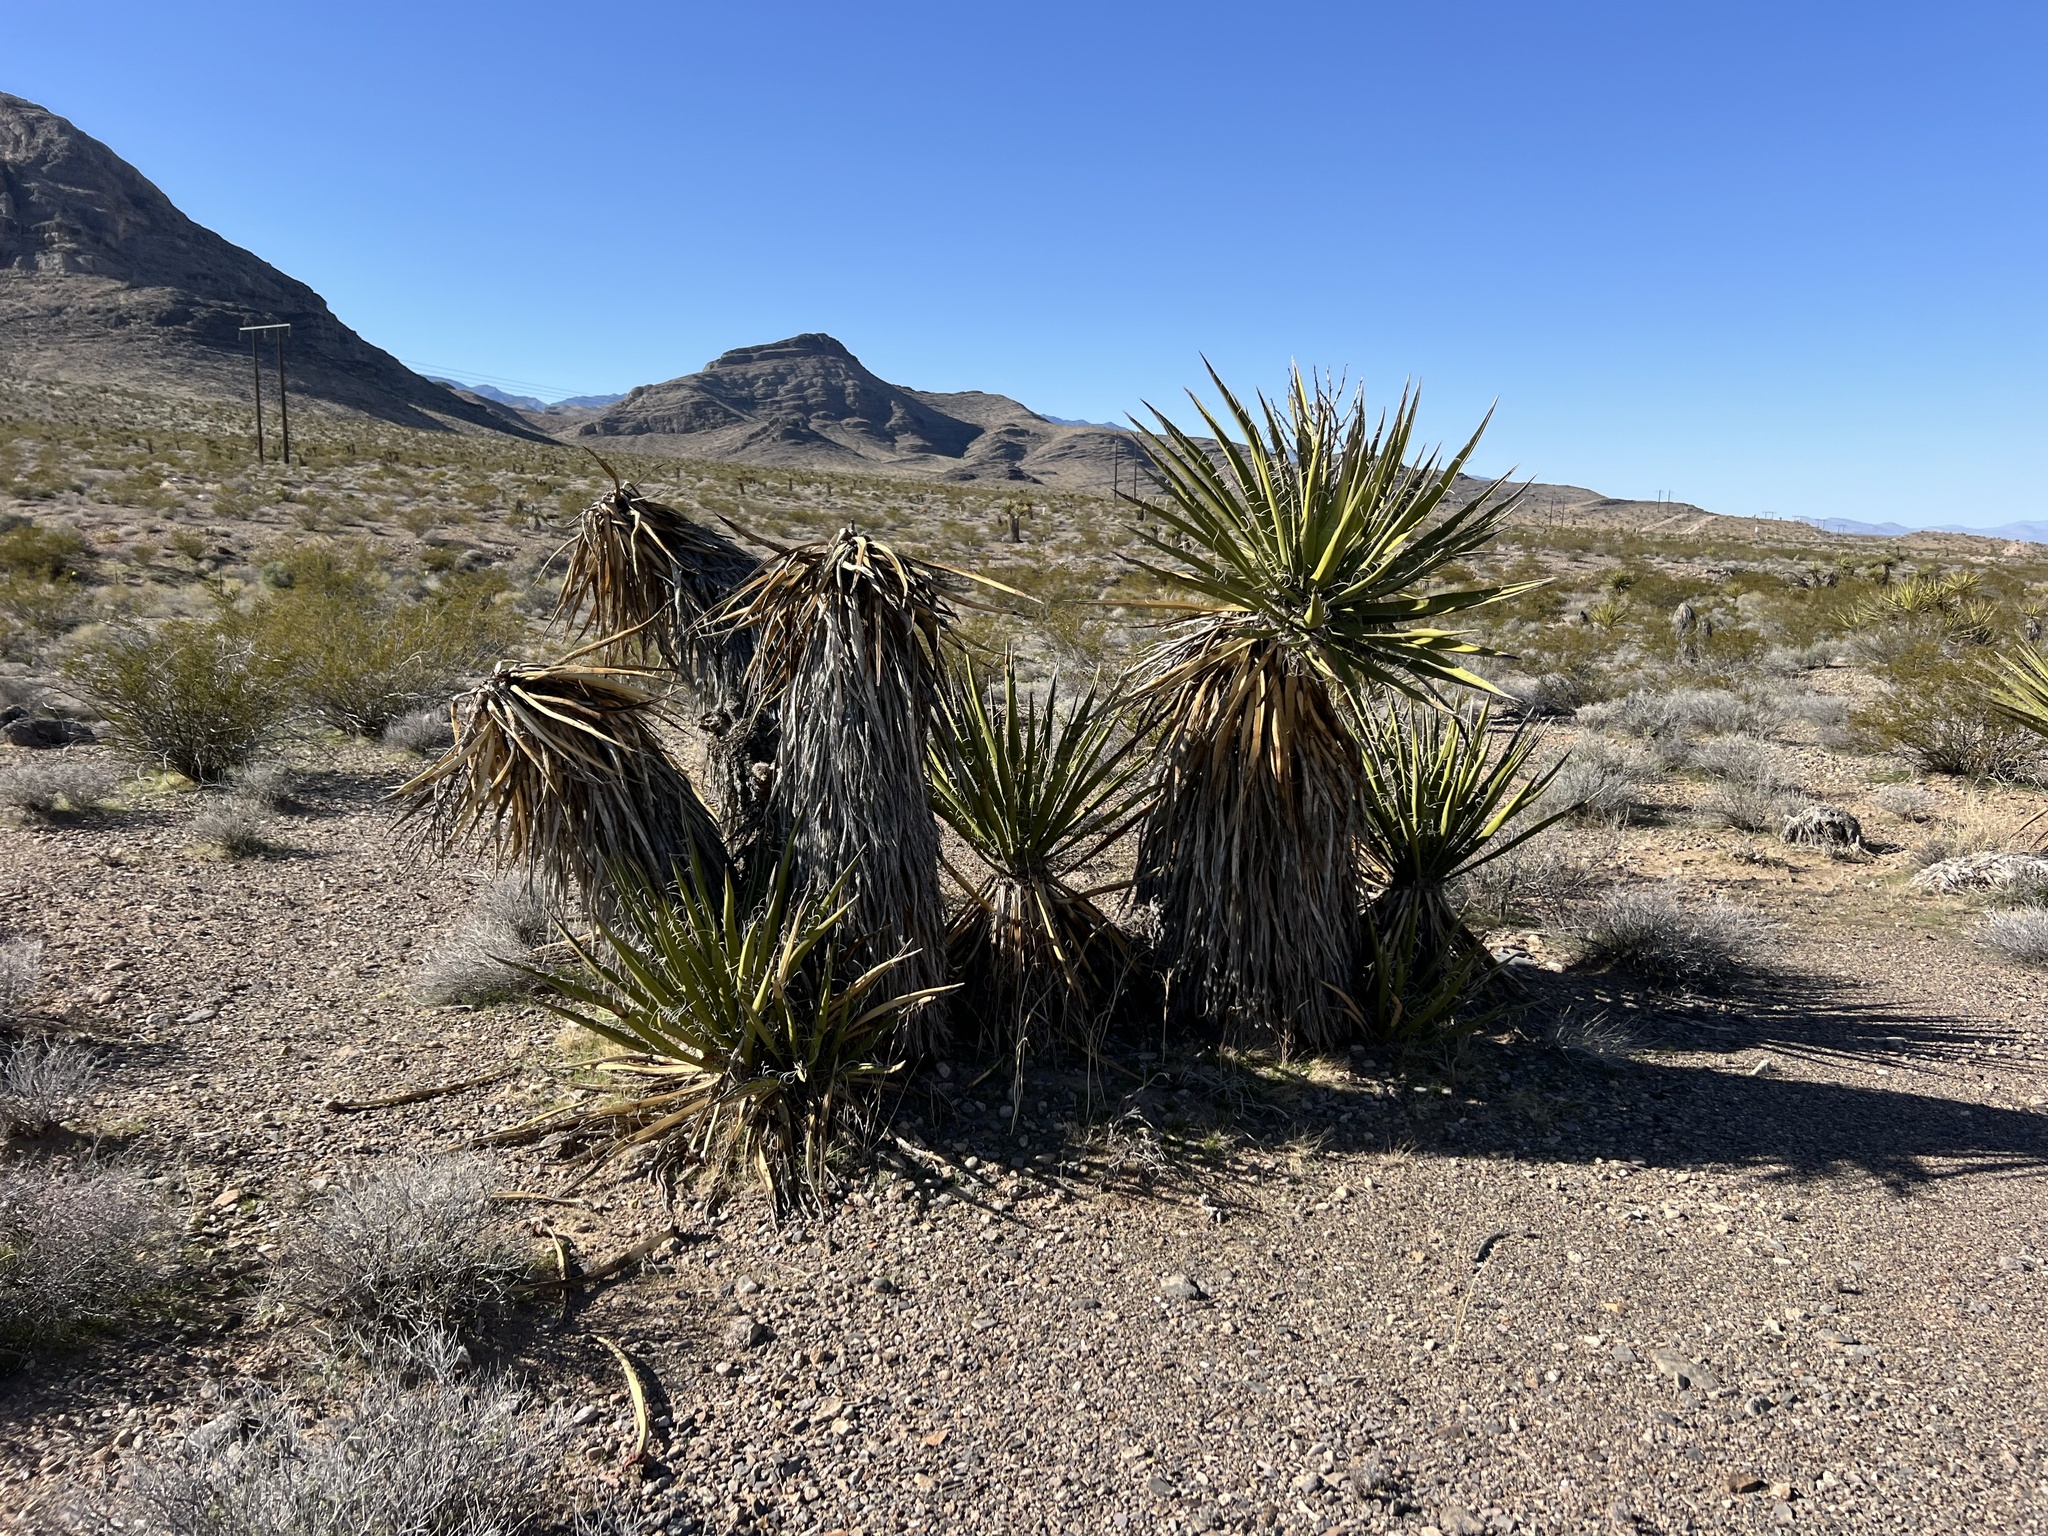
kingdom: Plantae
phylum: Tracheophyta
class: Liliopsida
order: Asparagales
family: Asparagaceae
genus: Yucca
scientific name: Yucca schidigera
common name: Mojave yucca
